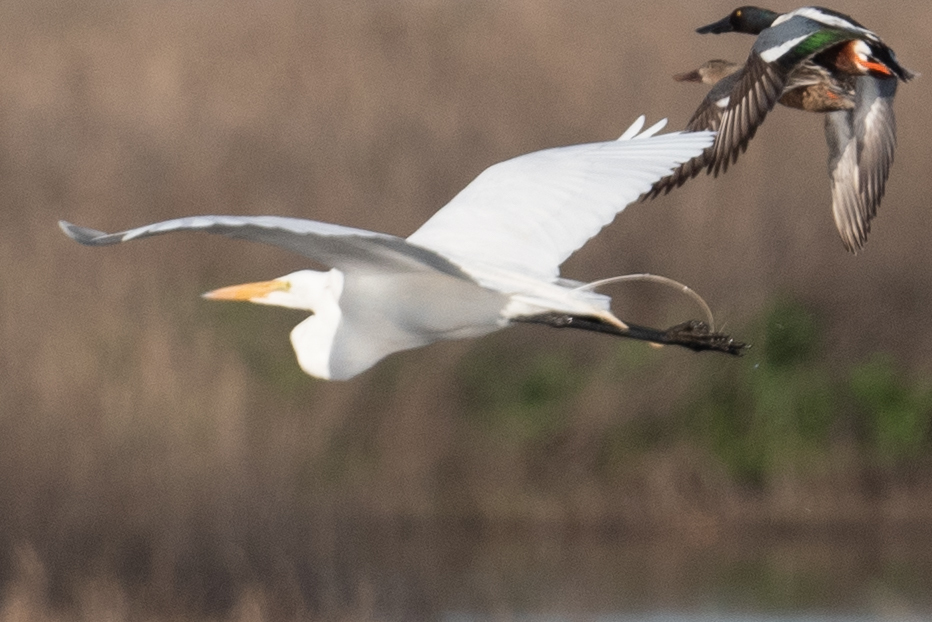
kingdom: Animalia
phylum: Chordata
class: Aves
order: Pelecaniformes
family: Ardeidae
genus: Ardea
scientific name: Ardea alba
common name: Great egret
